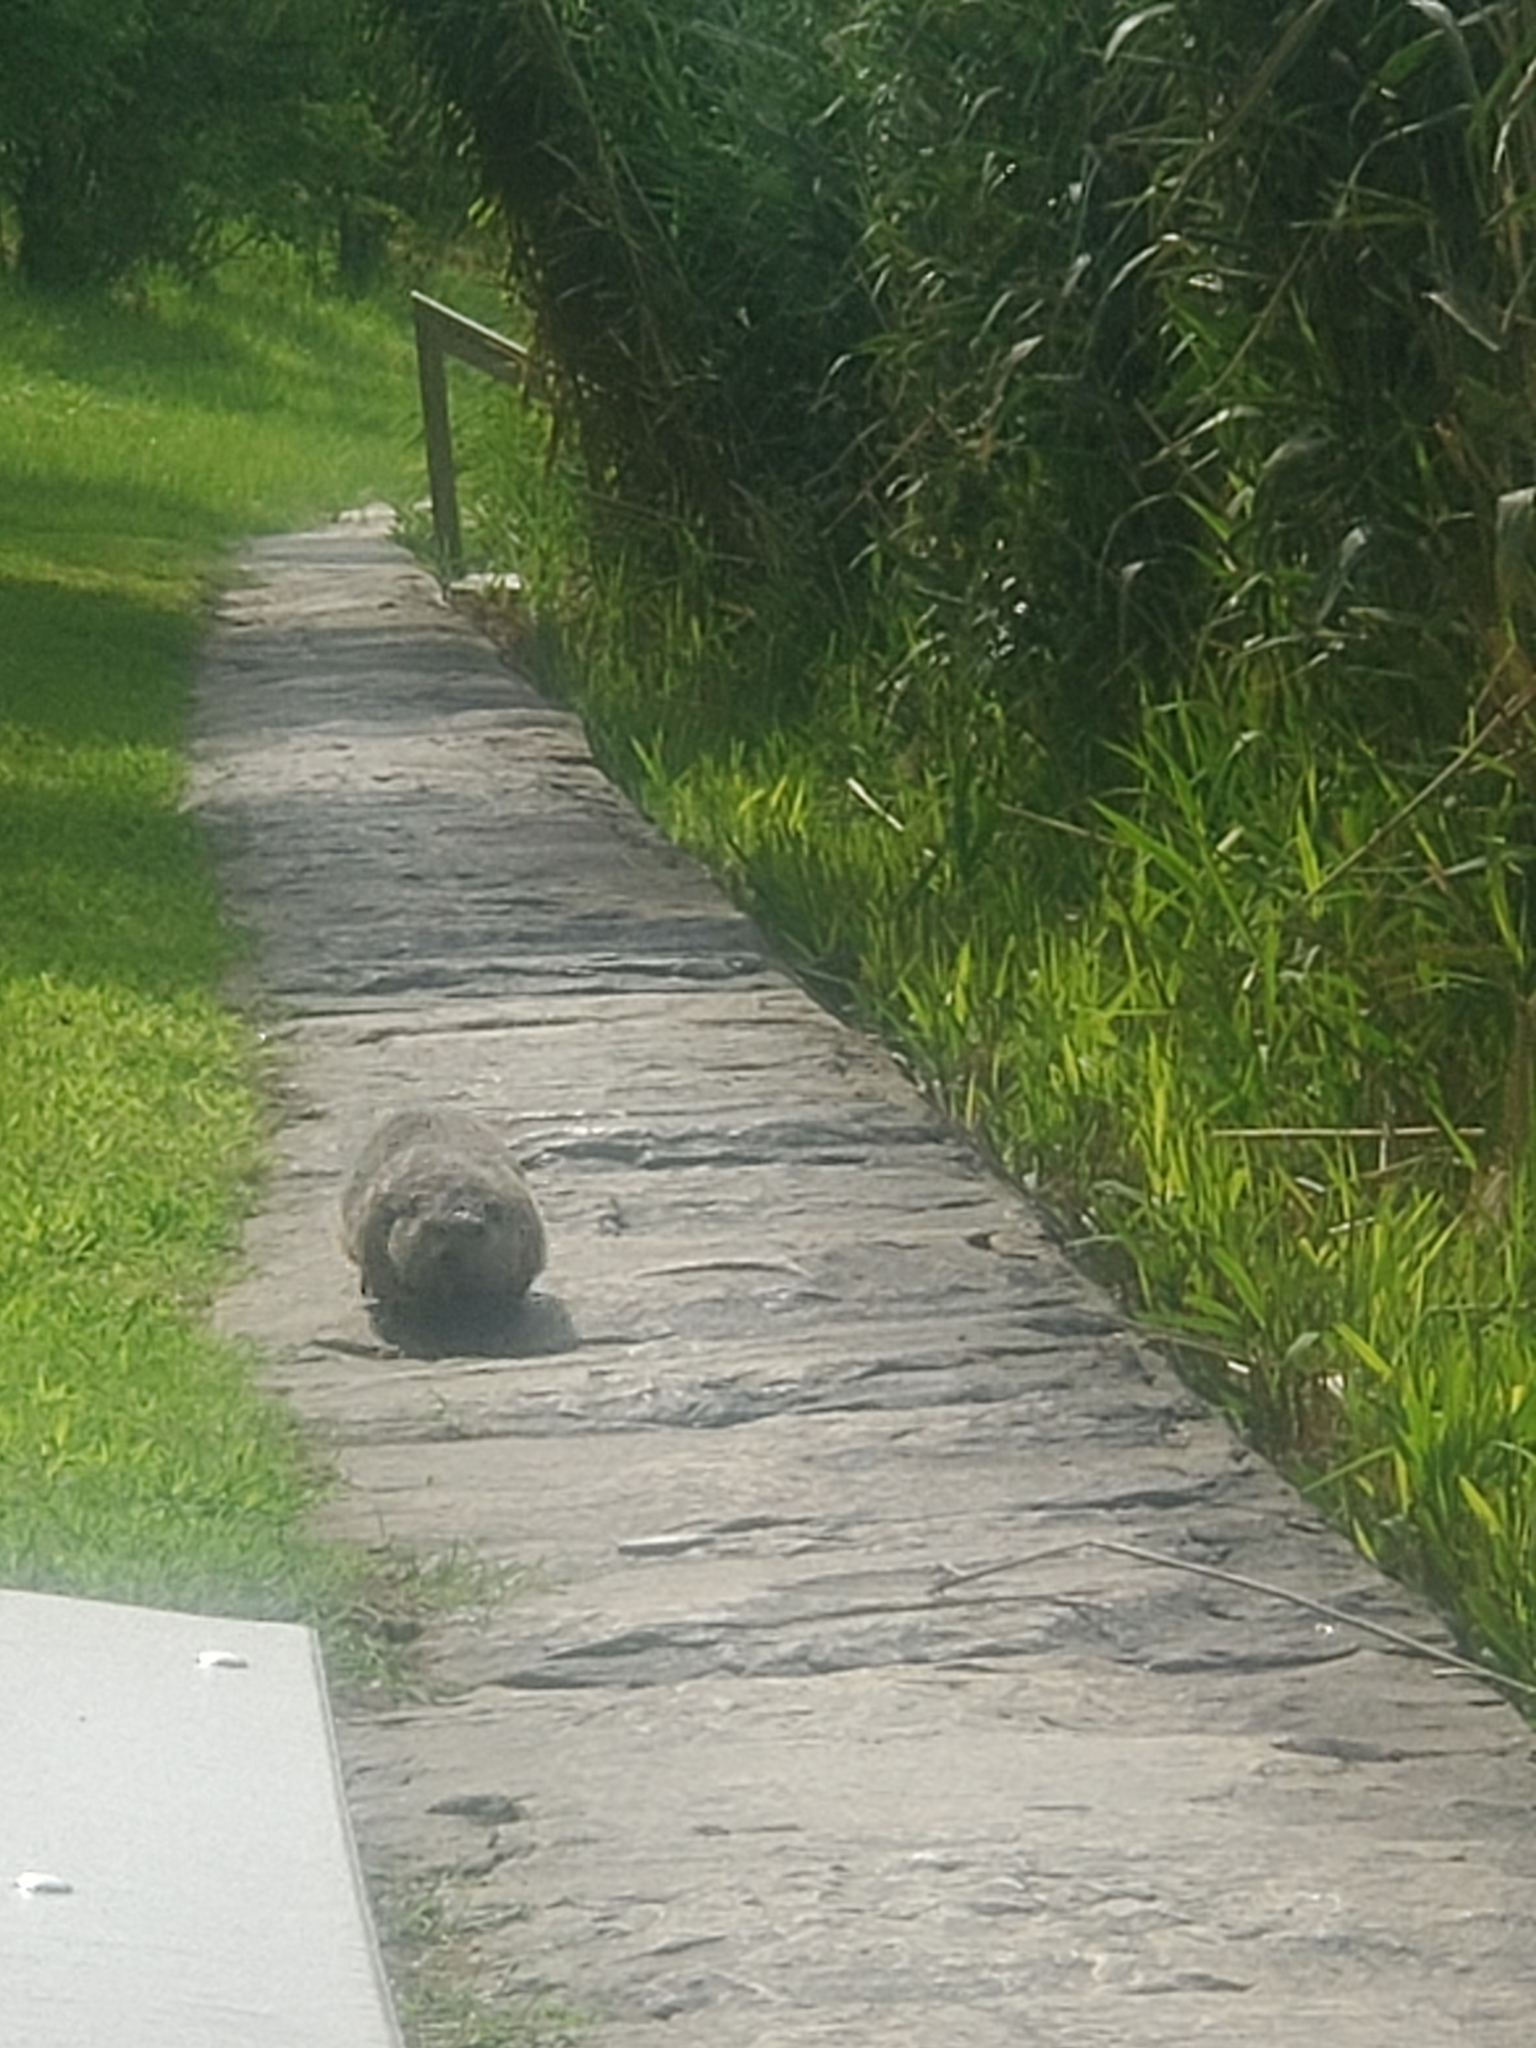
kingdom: Animalia
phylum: Chordata
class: Mammalia
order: Rodentia
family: Sciuridae
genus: Marmota
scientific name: Marmota monax
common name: Groundhog
